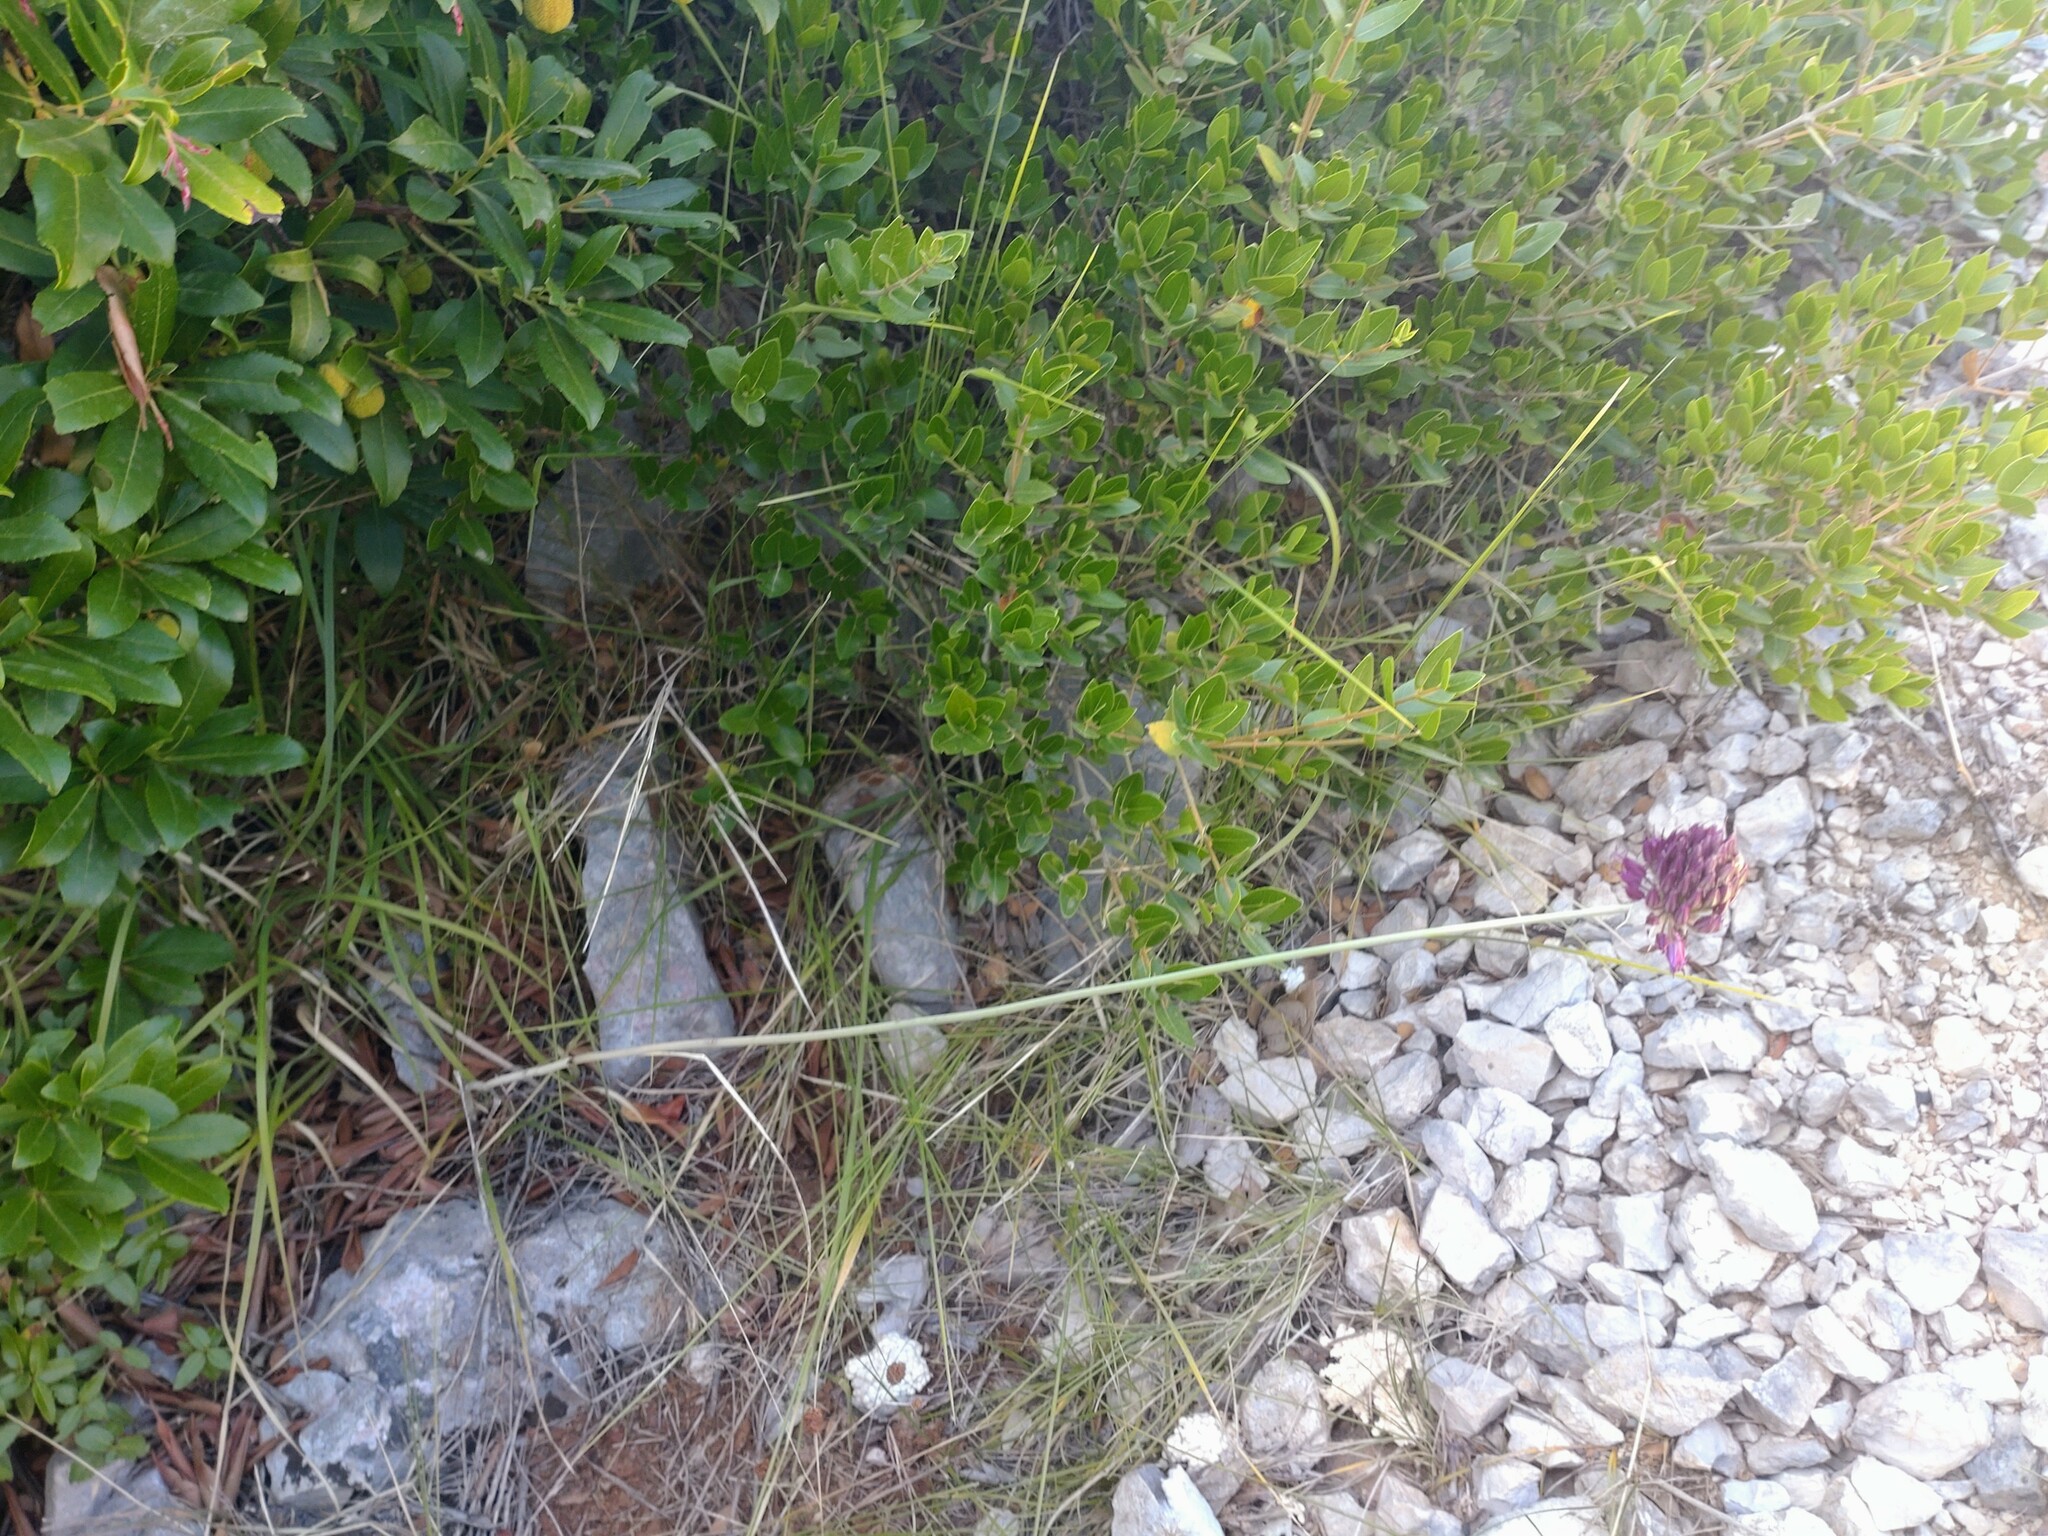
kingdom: Plantae
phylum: Tracheophyta
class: Liliopsida
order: Asparagales
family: Amaryllidaceae
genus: Allium
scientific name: Allium sphaerocephalon
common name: Round-headed leek
